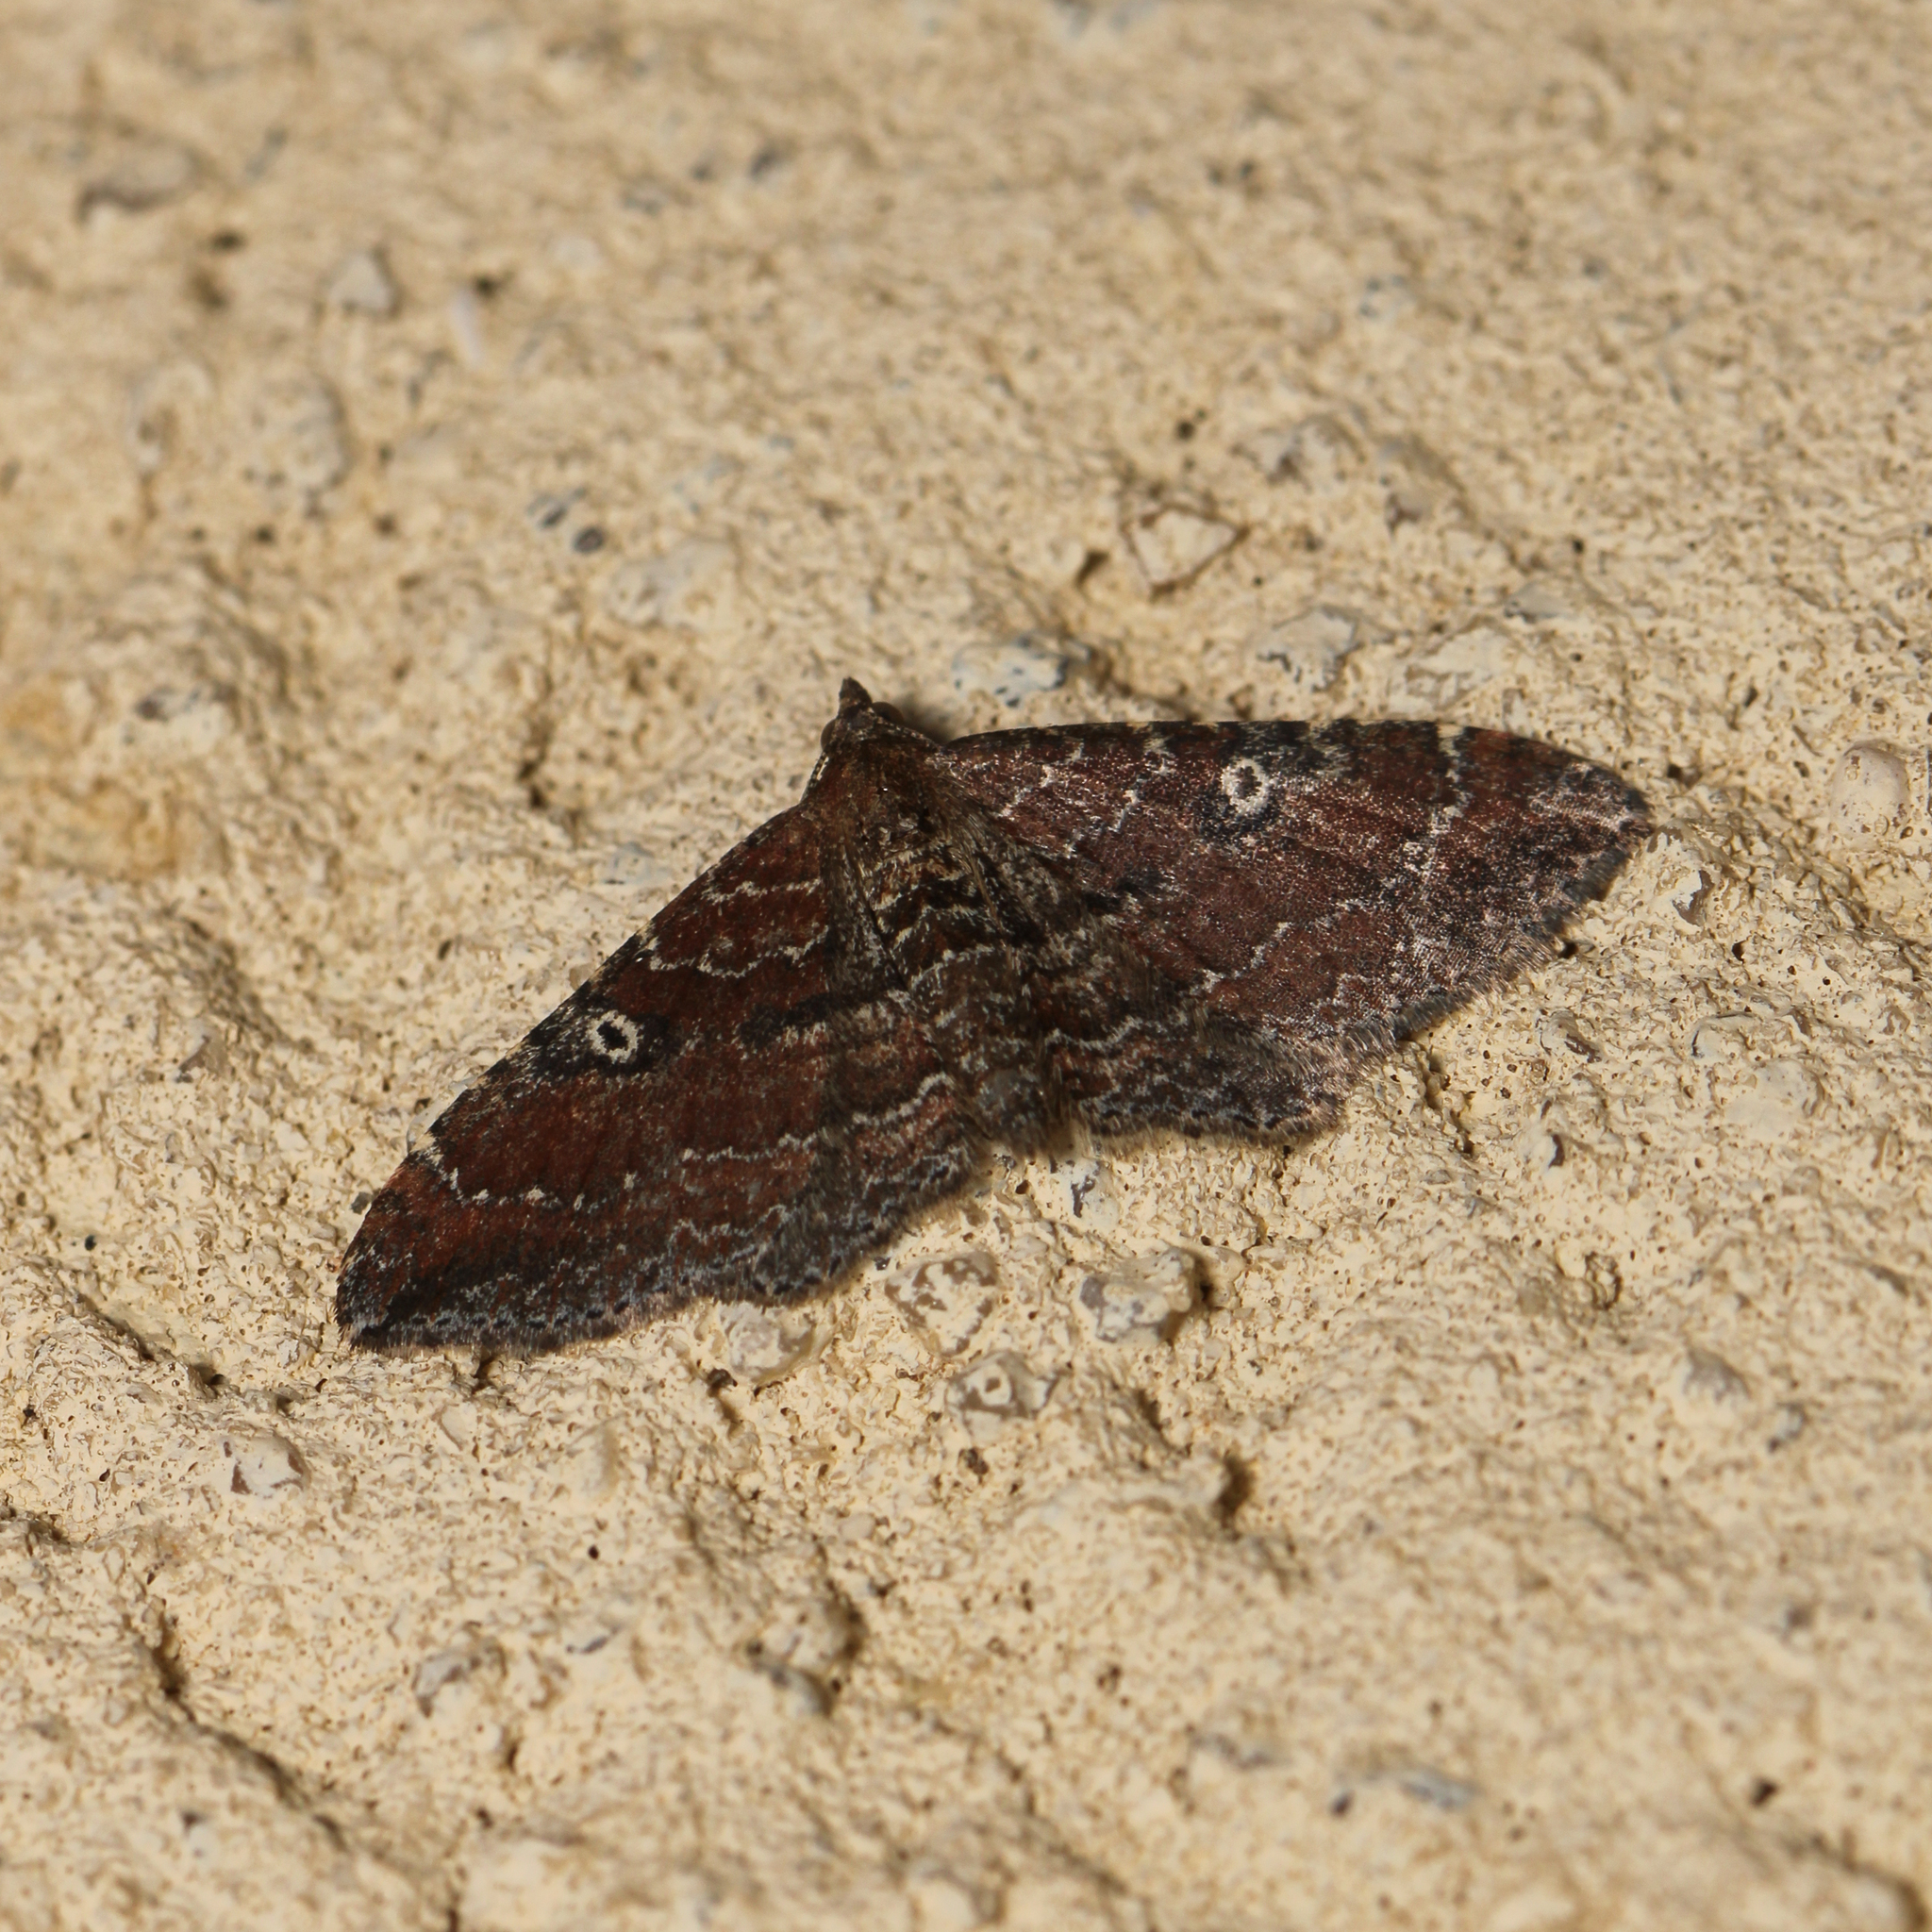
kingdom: Animalia
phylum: Arthropoda
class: Insecta
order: Lepidoptera
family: Geometridae
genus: Orthonama
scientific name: Orthonama obstipata
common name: The gem
